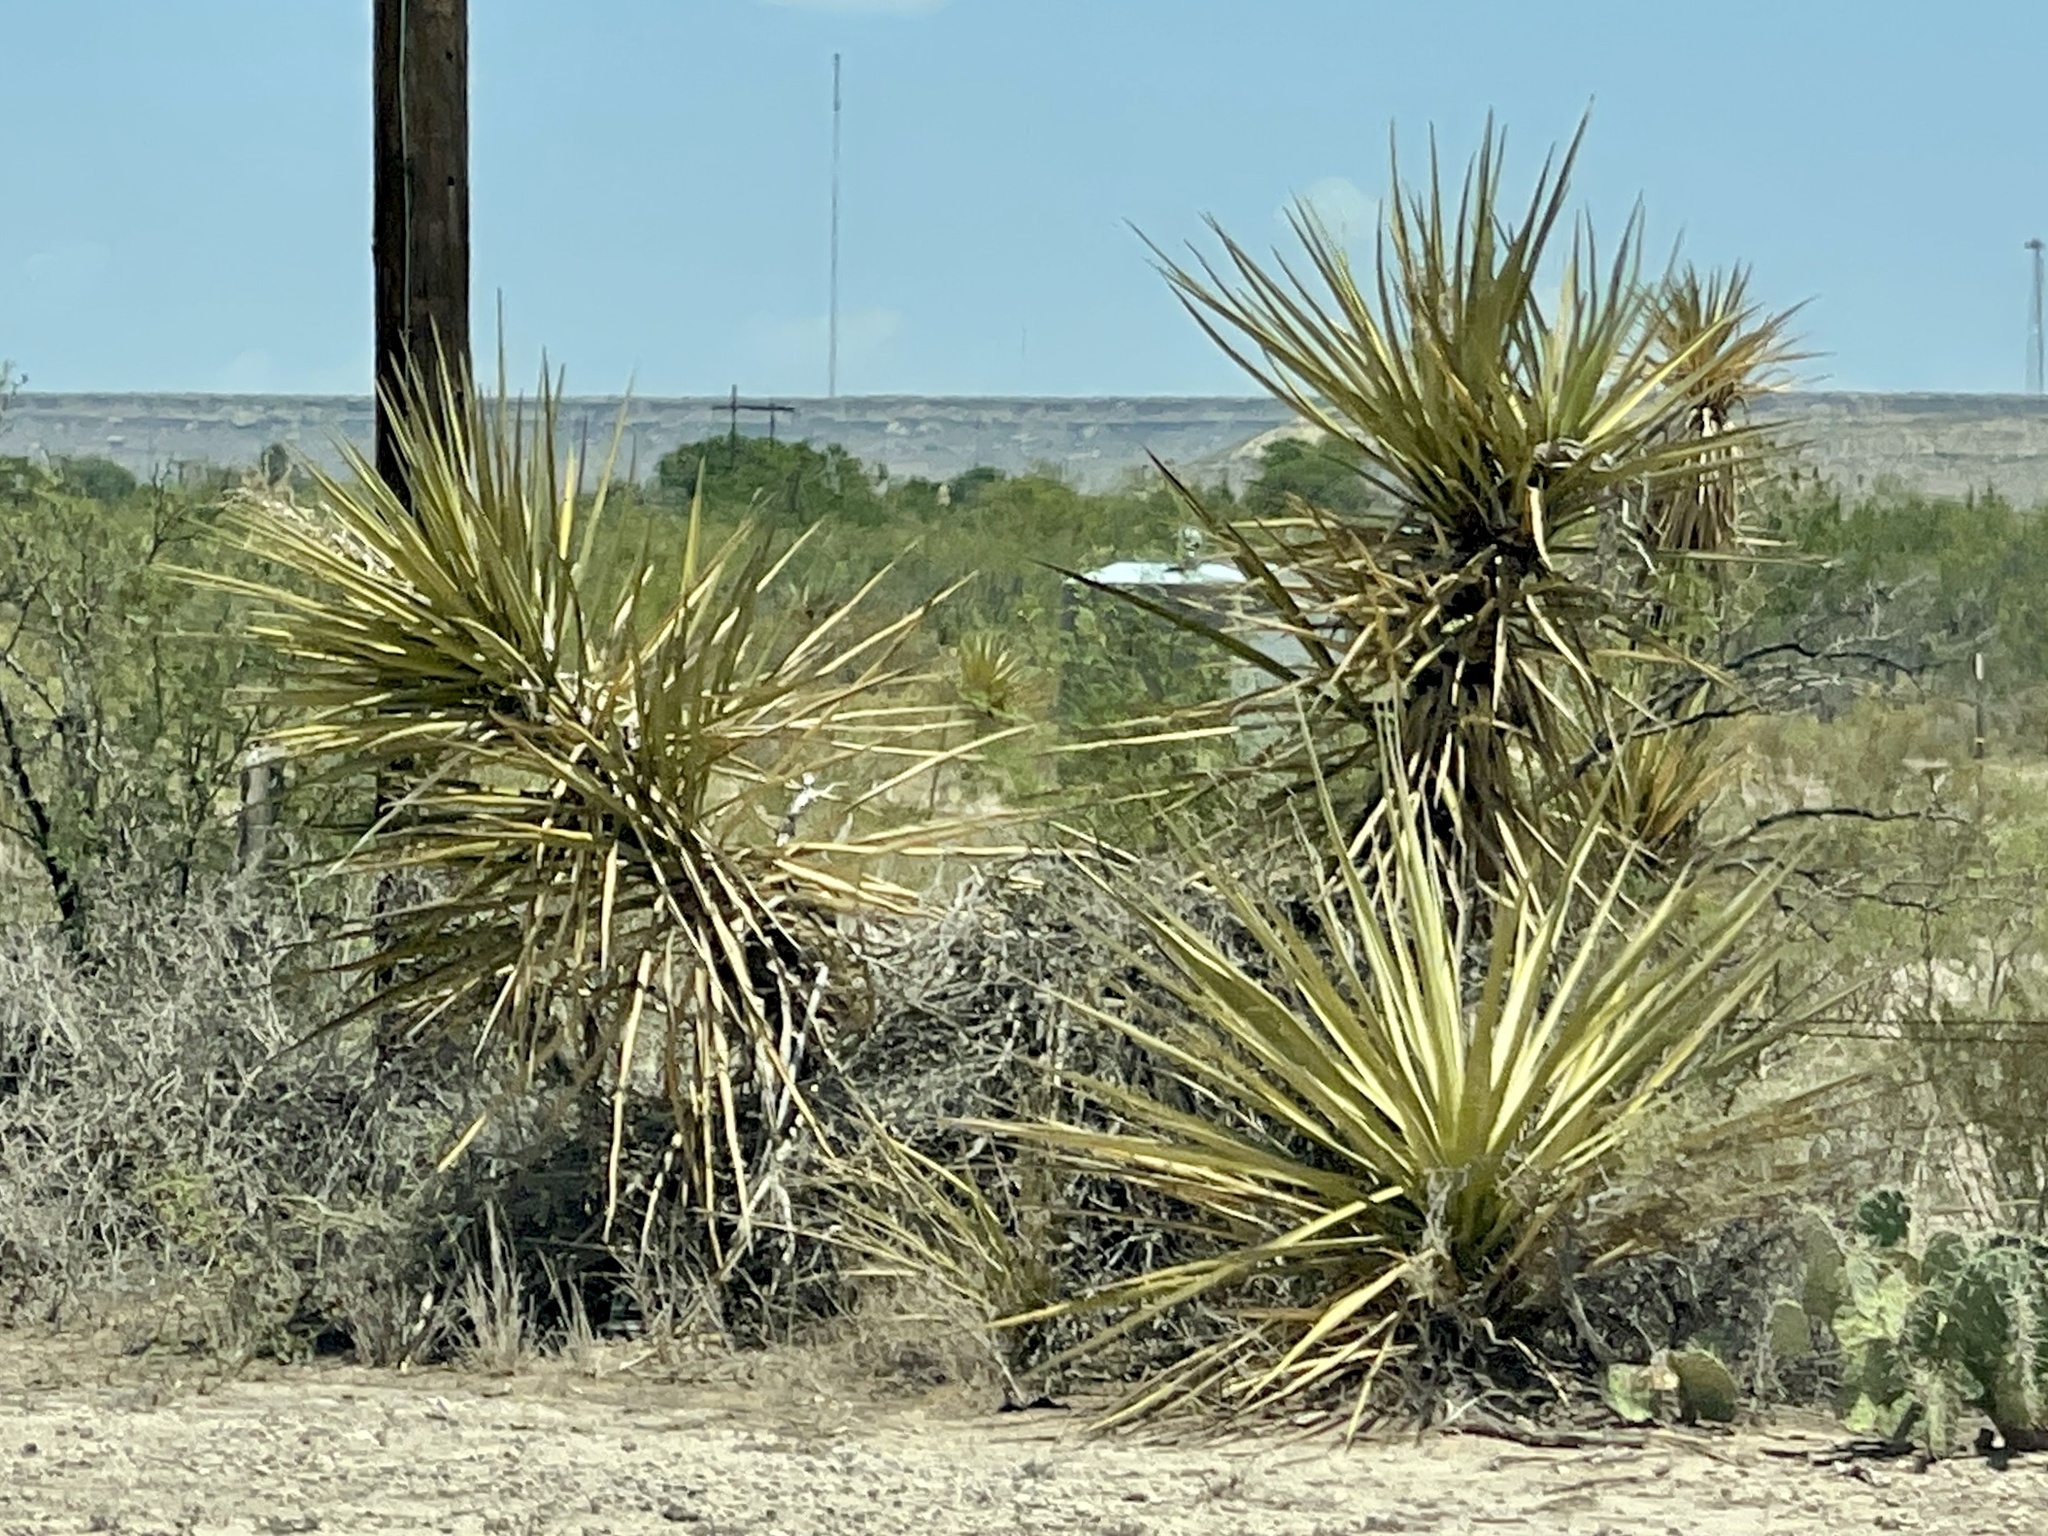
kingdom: Plantae
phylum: Tracheophyta
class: Liliopsida
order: Asparagales
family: Asparagaceae
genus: Yucca
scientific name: Yucca treculiana
